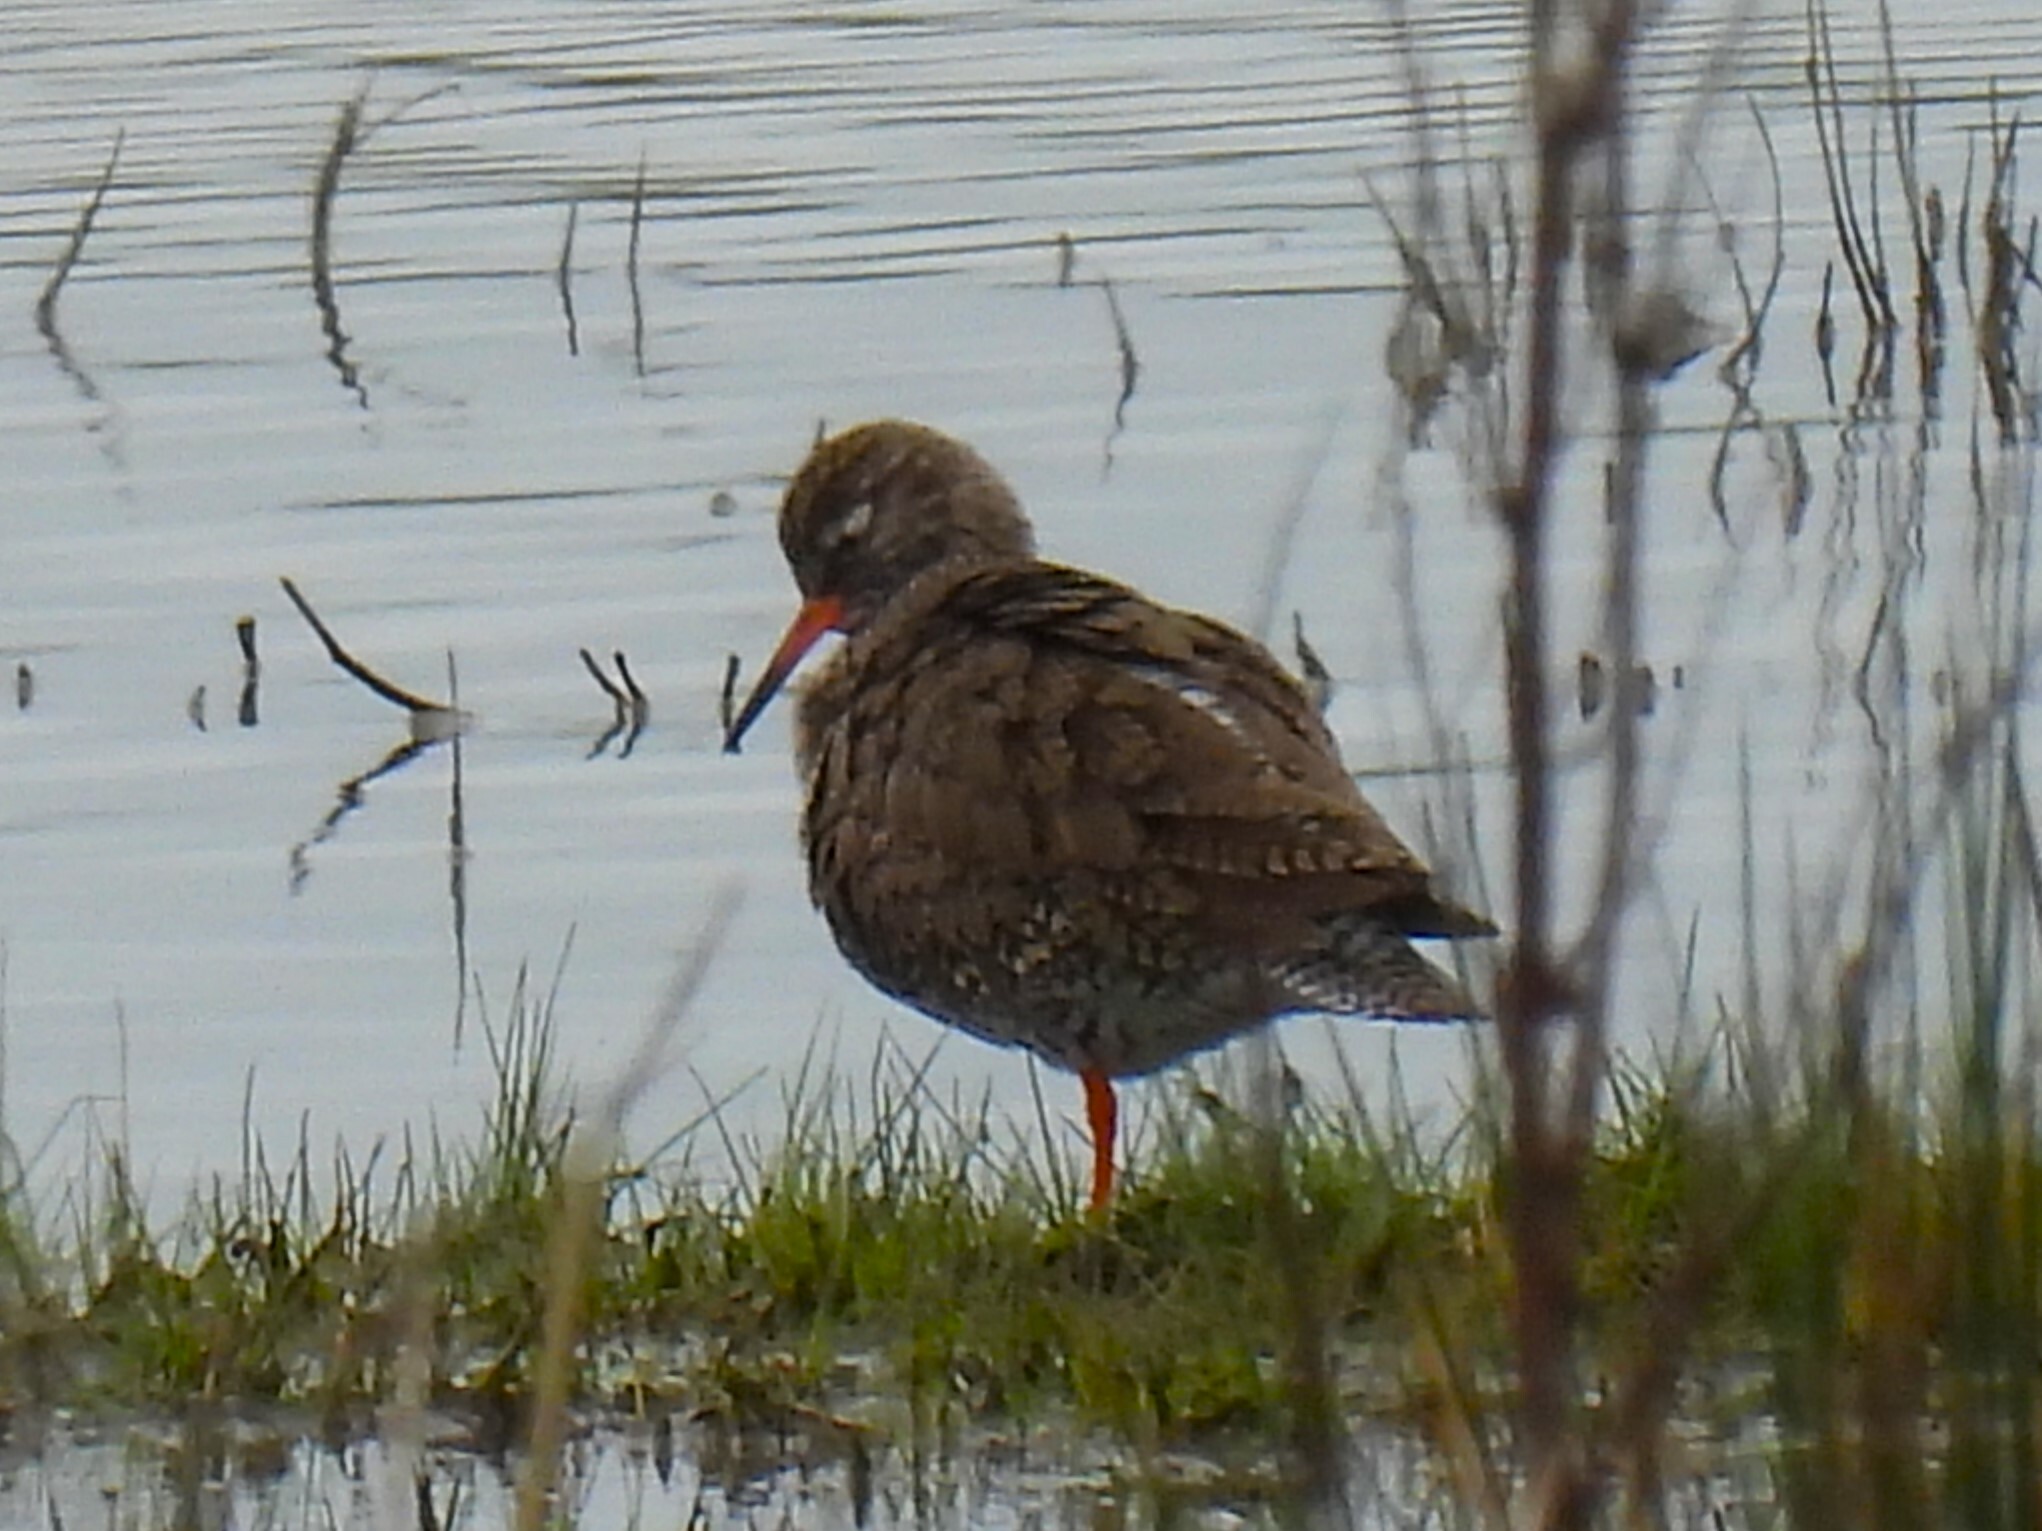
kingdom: Animalia
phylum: Chordata
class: Aves
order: Charadriiformes
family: Scolopacidae
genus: Tringa
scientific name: Tringa totanus
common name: Common redshank
